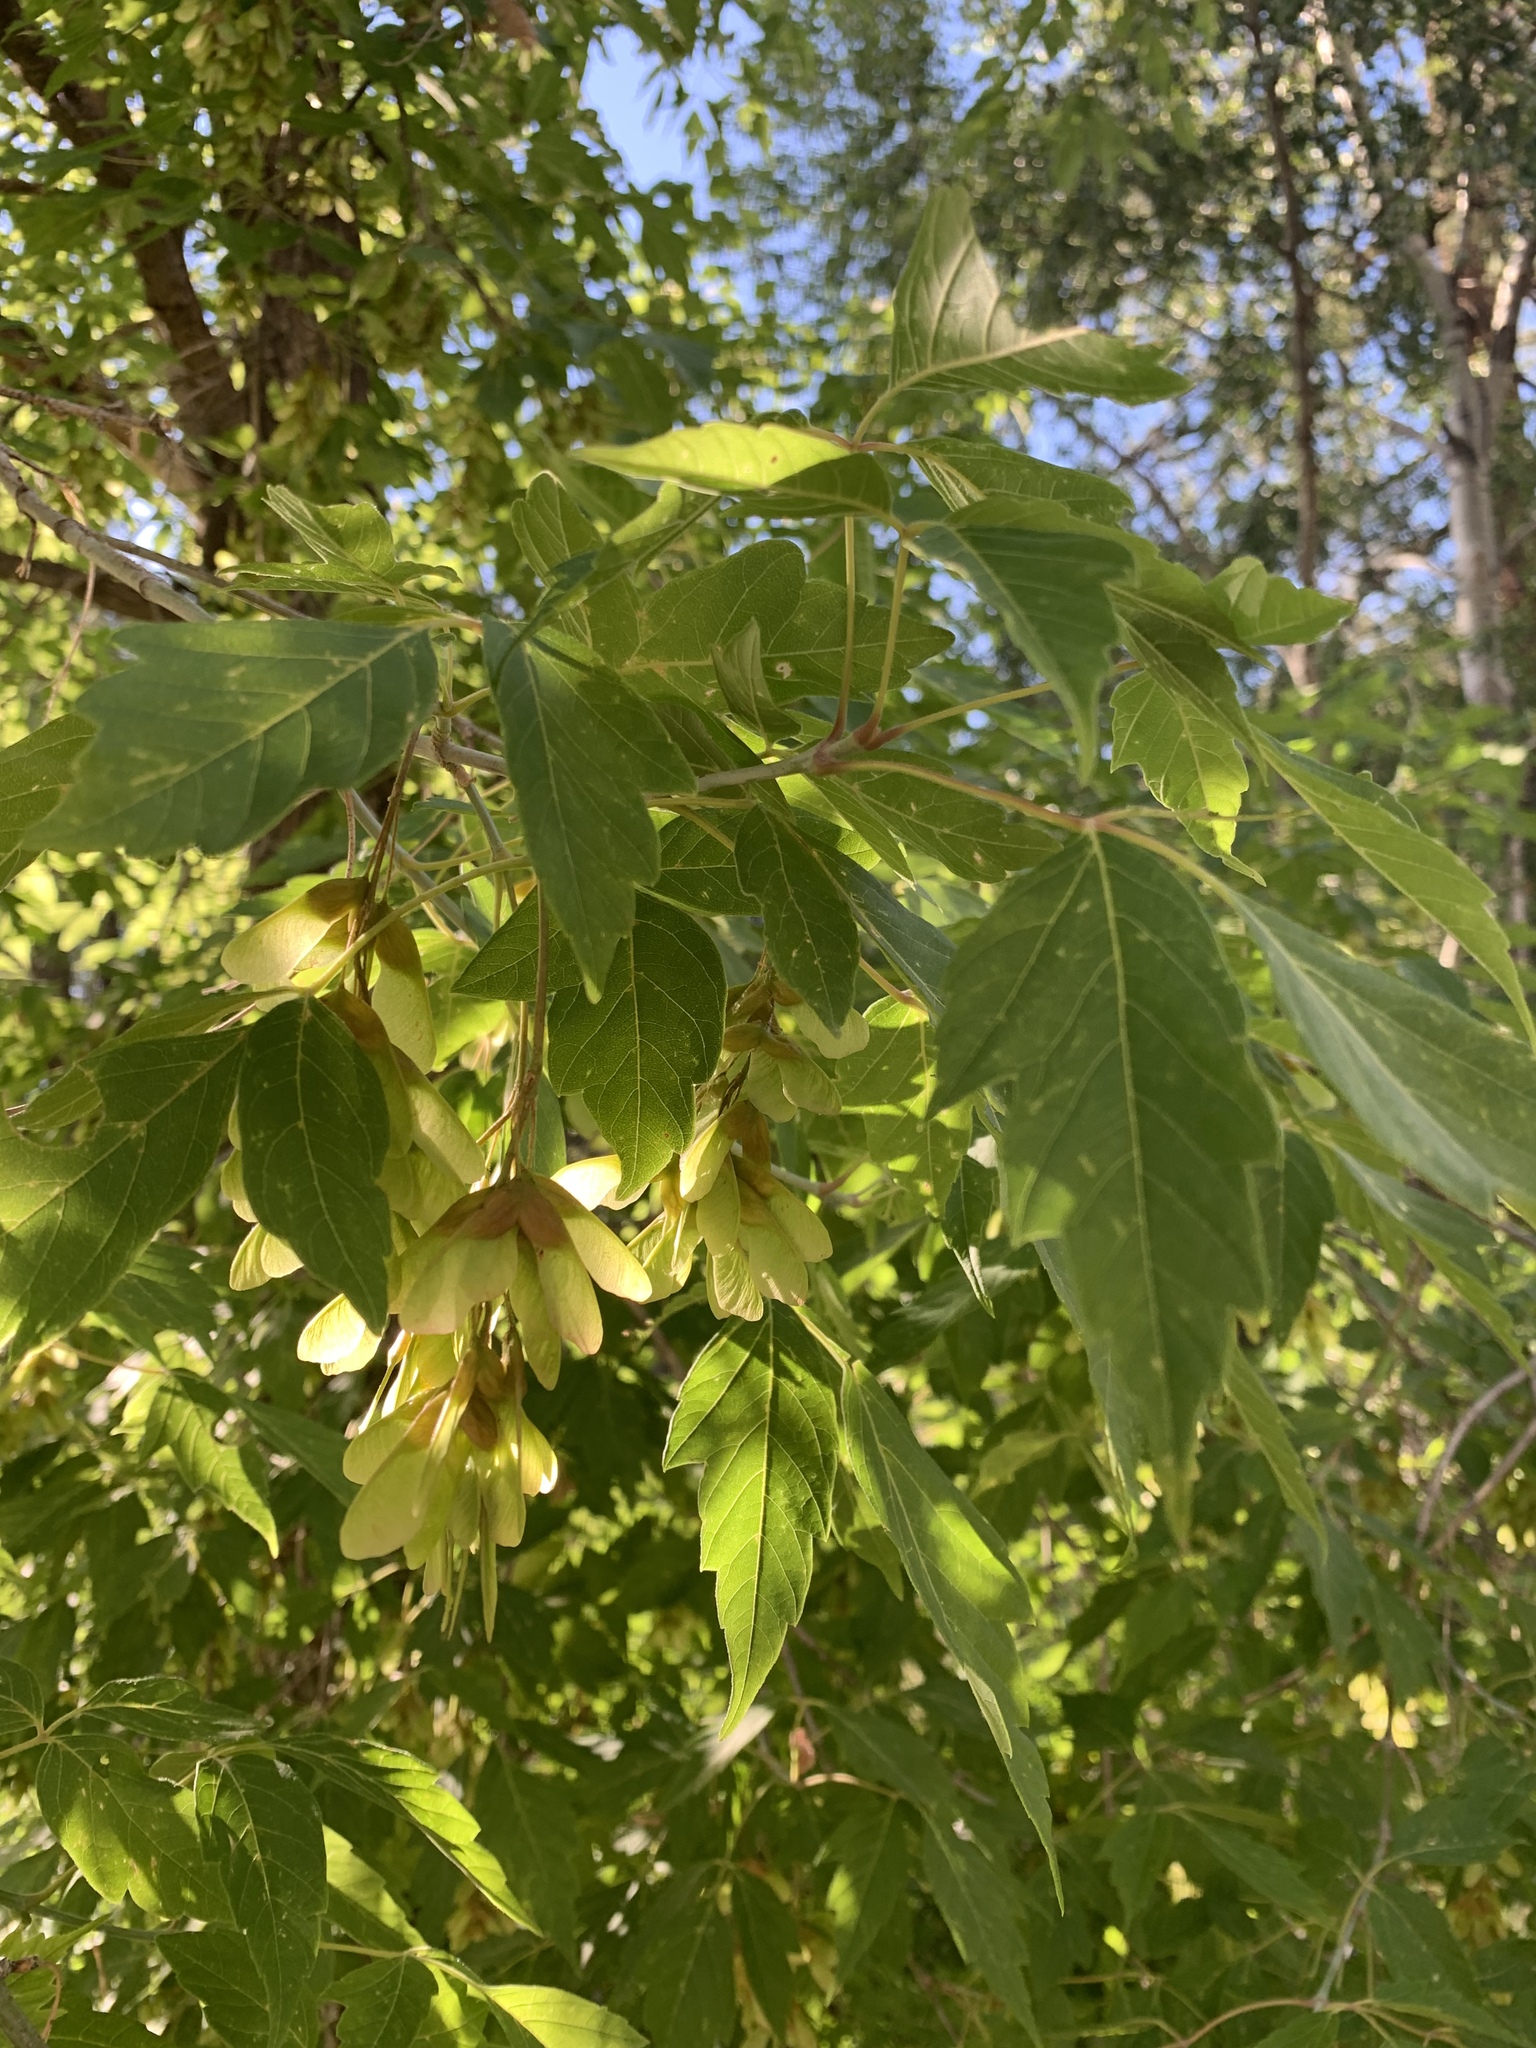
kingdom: Plantae
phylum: Tracheophyta
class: Magnoliopsida
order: Sapindales
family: Sapindaceae
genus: Acer
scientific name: Acer negundo
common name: Ashleaf maple
